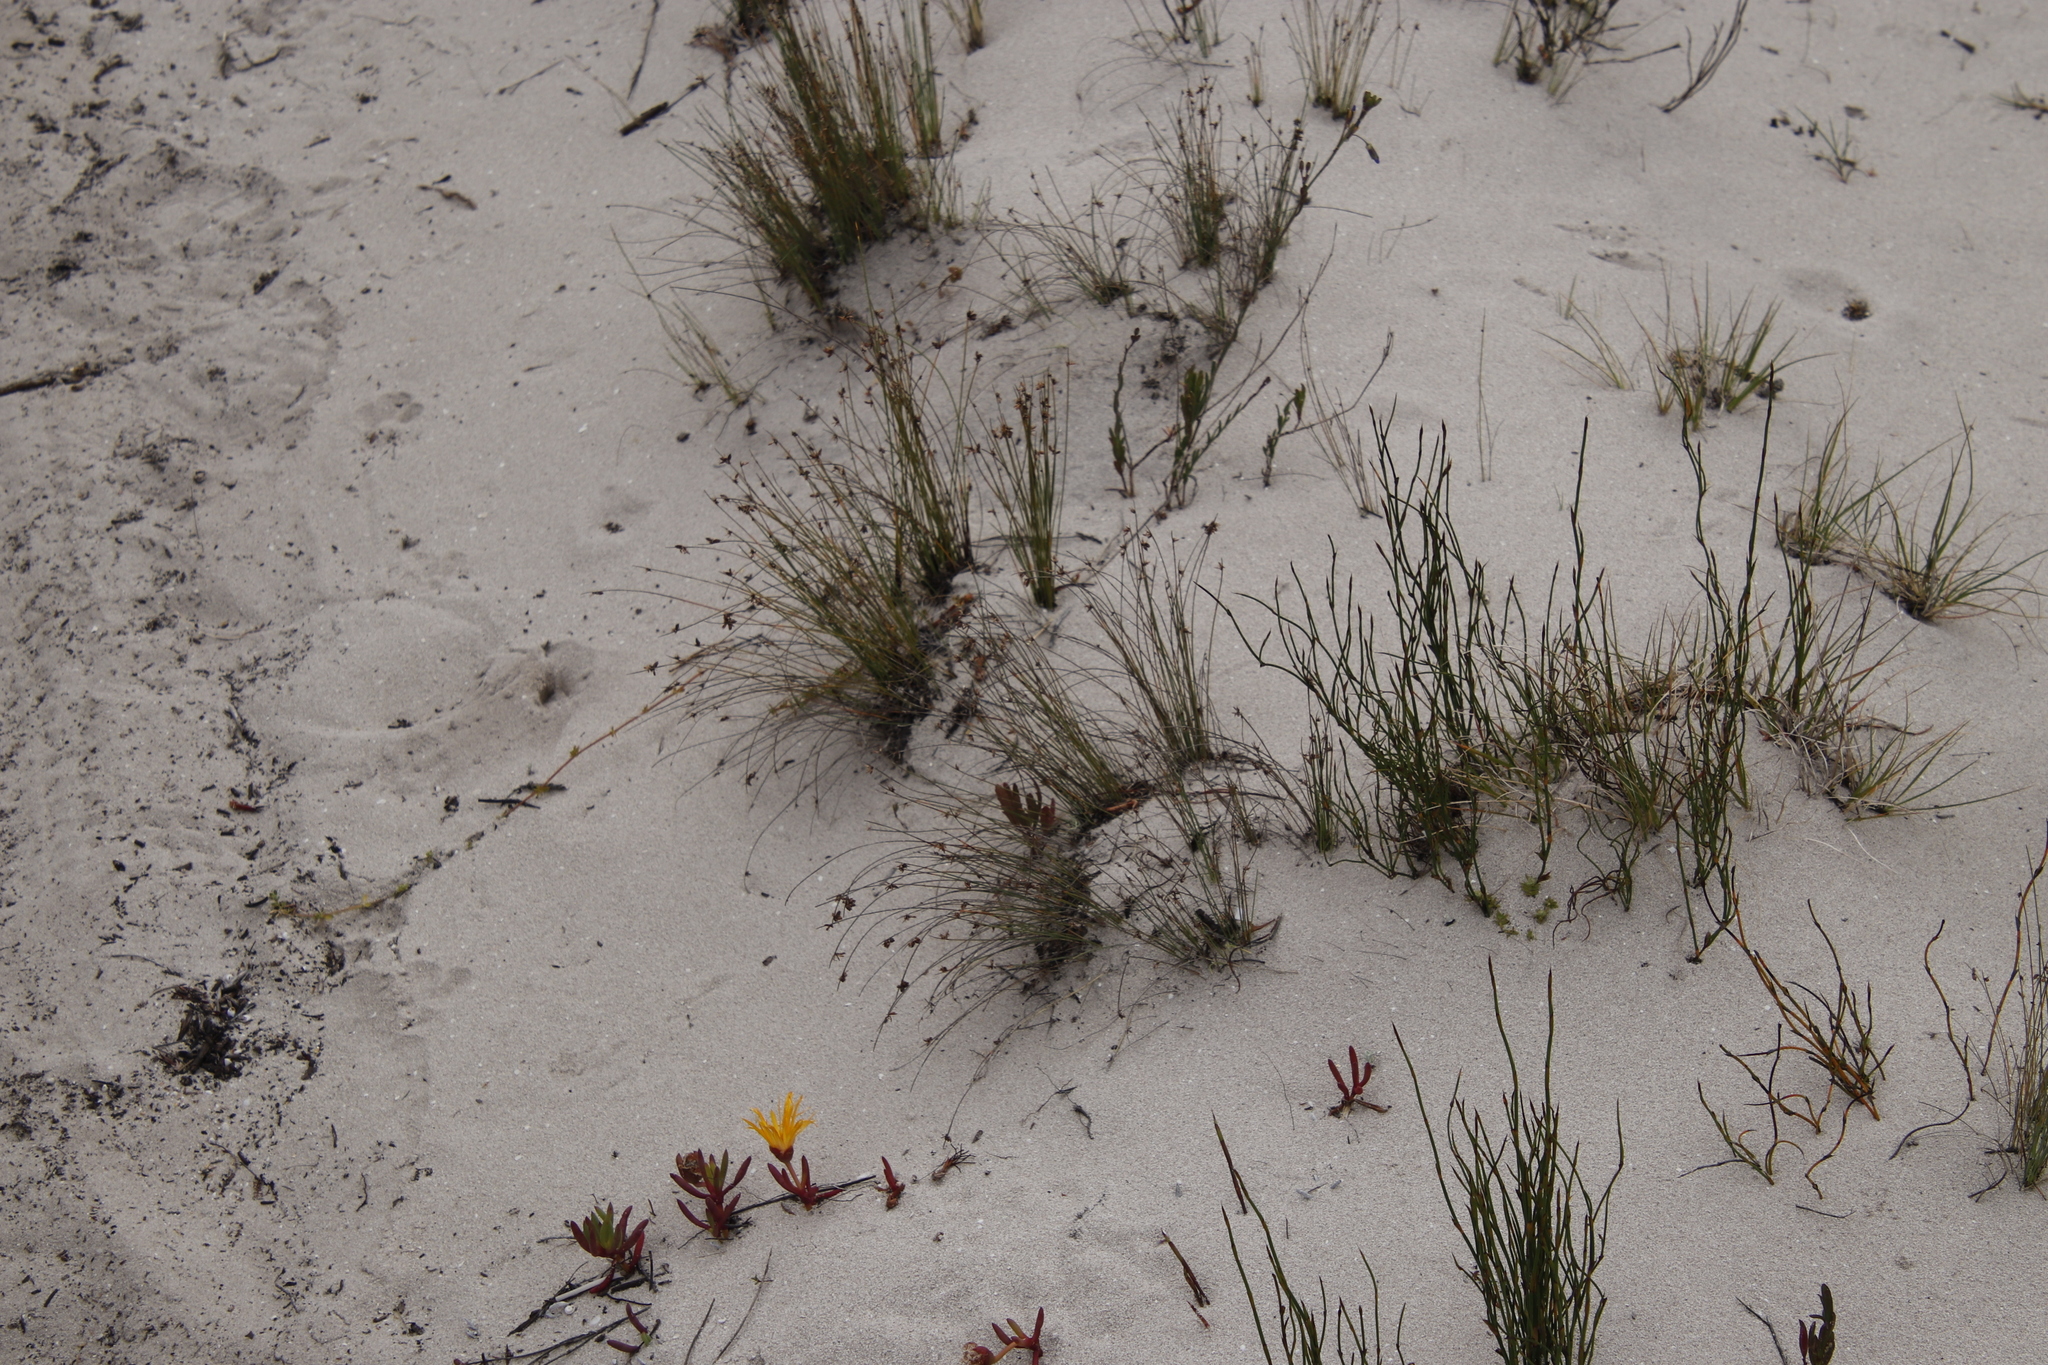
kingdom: Plantae
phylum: Tracheophyta
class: Liliopsida
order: Poales
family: Cyperaceae
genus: Ficinia
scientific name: Ficinia lateralis
